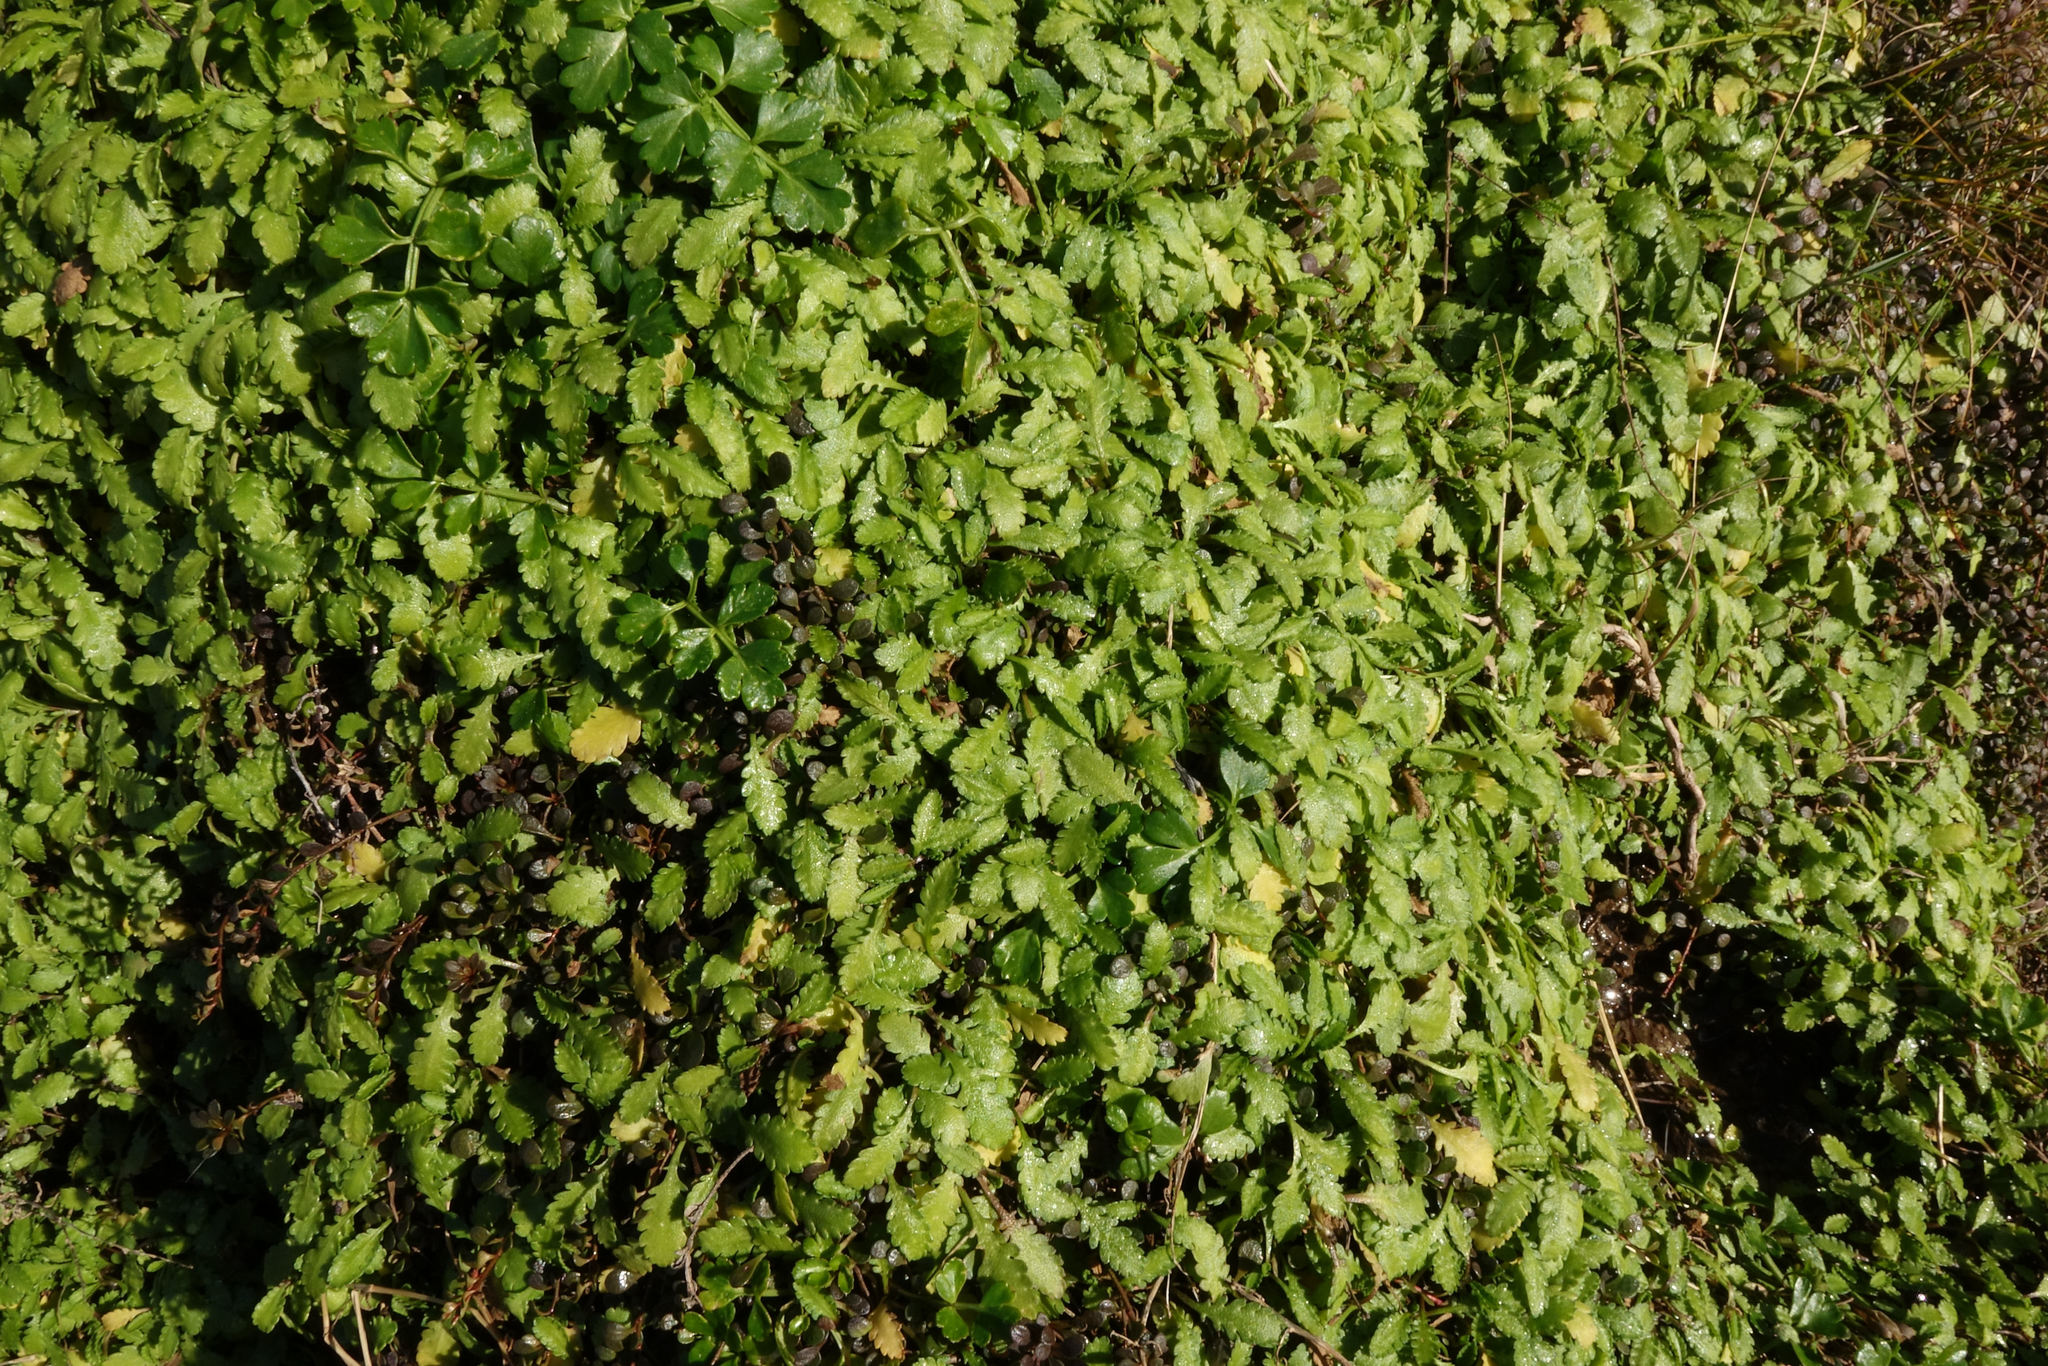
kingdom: Plantae
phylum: Tracheophyta
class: Magnoliopsida
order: Asterales
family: Asteraceae
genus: Leptinella
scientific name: Leptinella dioica
